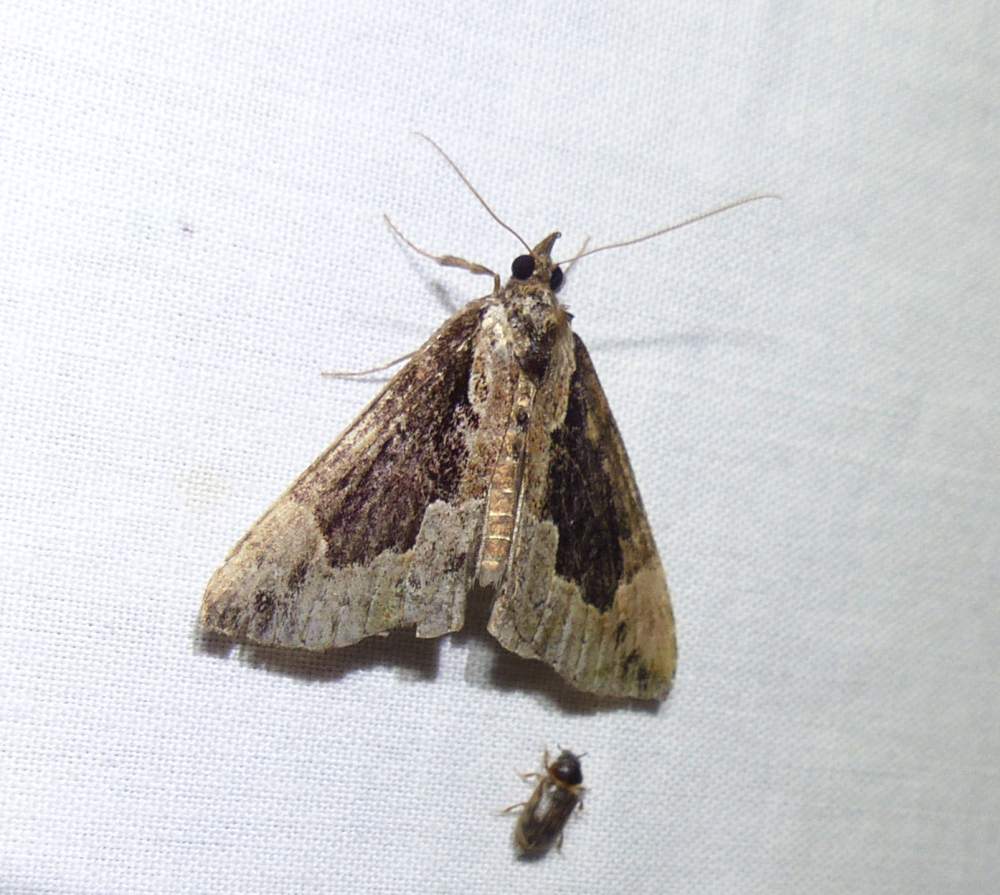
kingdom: Animalia
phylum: Arthropoda
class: Insecta
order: Lepidoptera
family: Erebidae
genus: Hypena
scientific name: Hypena baltimoralis
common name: Baltimore snout
